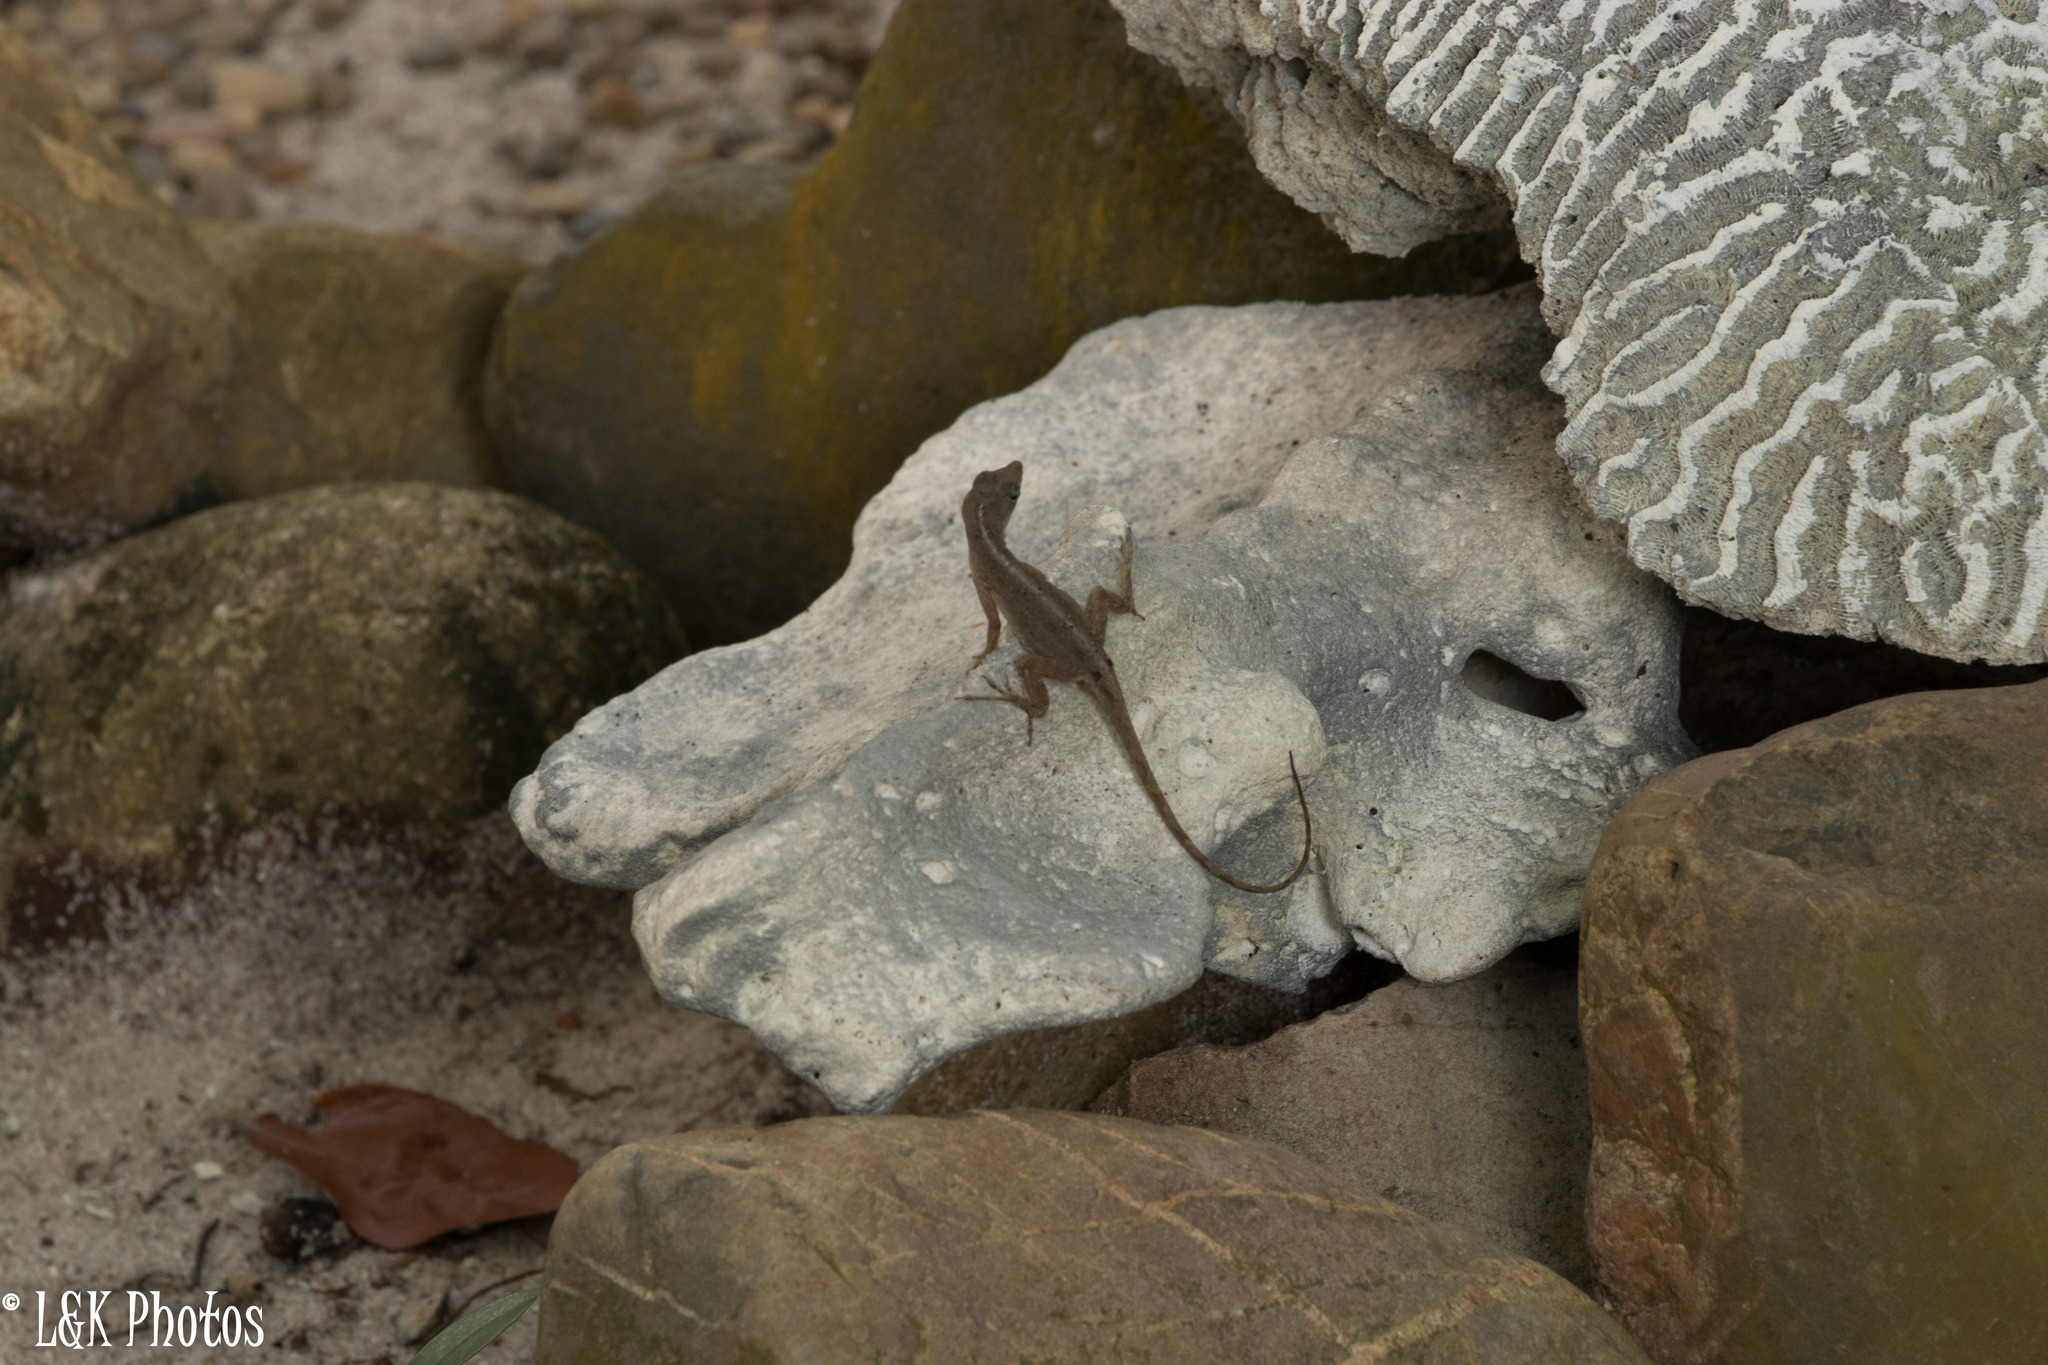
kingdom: Animalia
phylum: Chordata
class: Squamata
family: Dactyloidae
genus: Anolis
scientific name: Anolis sagrei
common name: Brown anole
